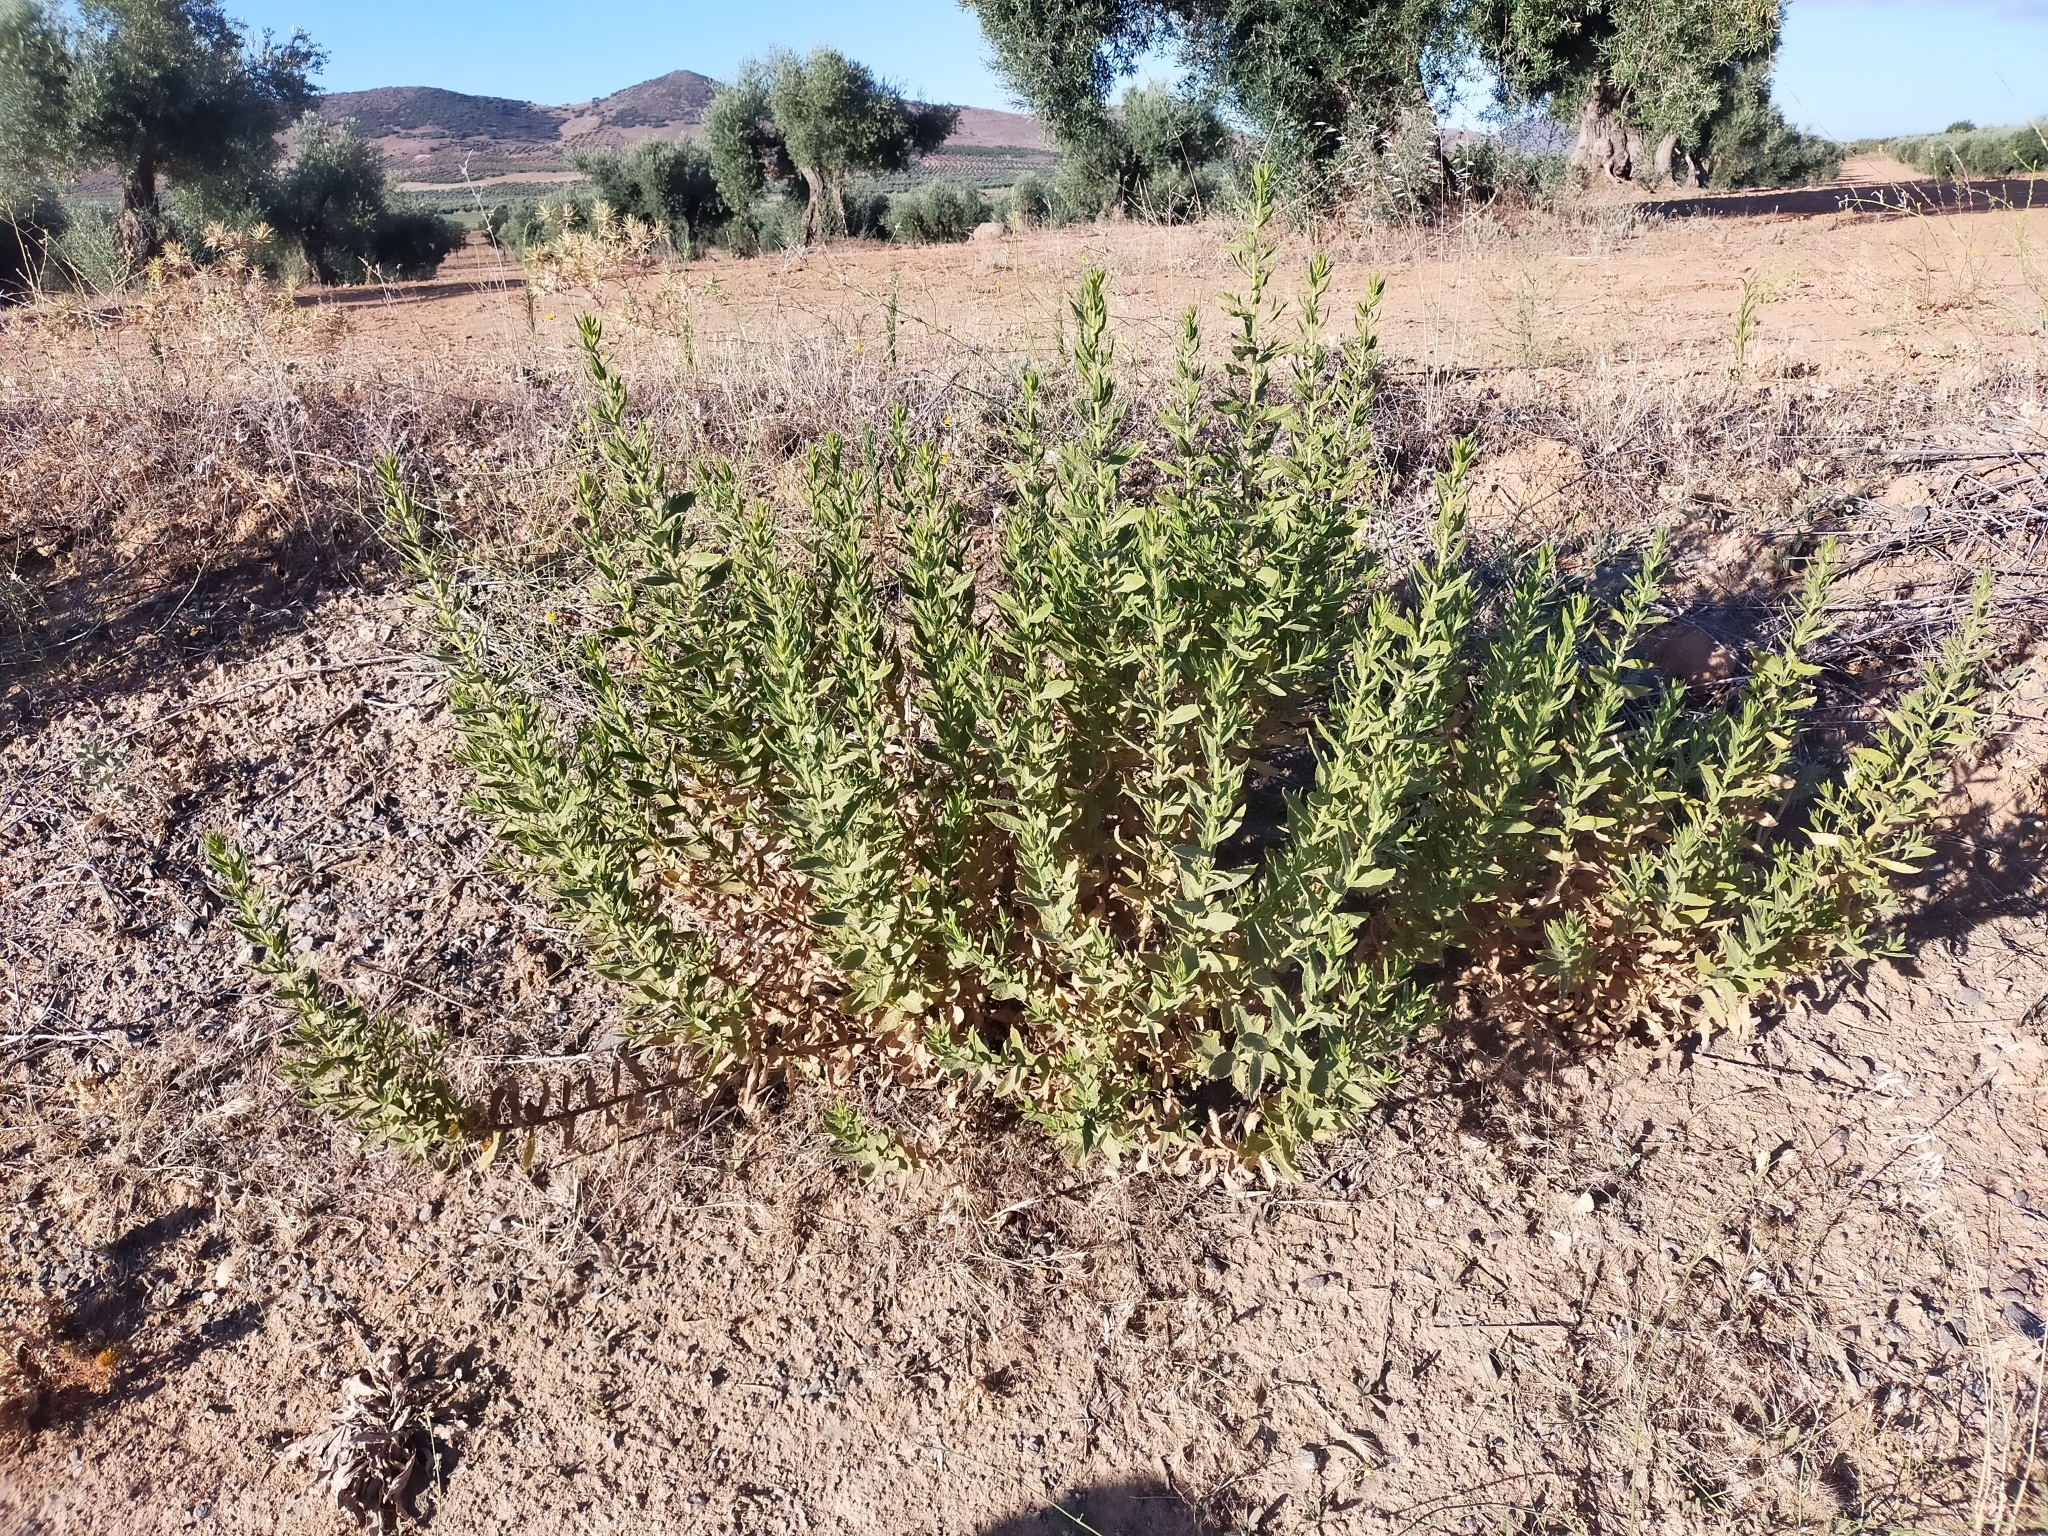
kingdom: Plantae
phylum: Tracheophyta
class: Magnoliopsida
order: Asterales
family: Asteraceae
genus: Dittrichia
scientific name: Dittrichia viscosa
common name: Woody fleabane
